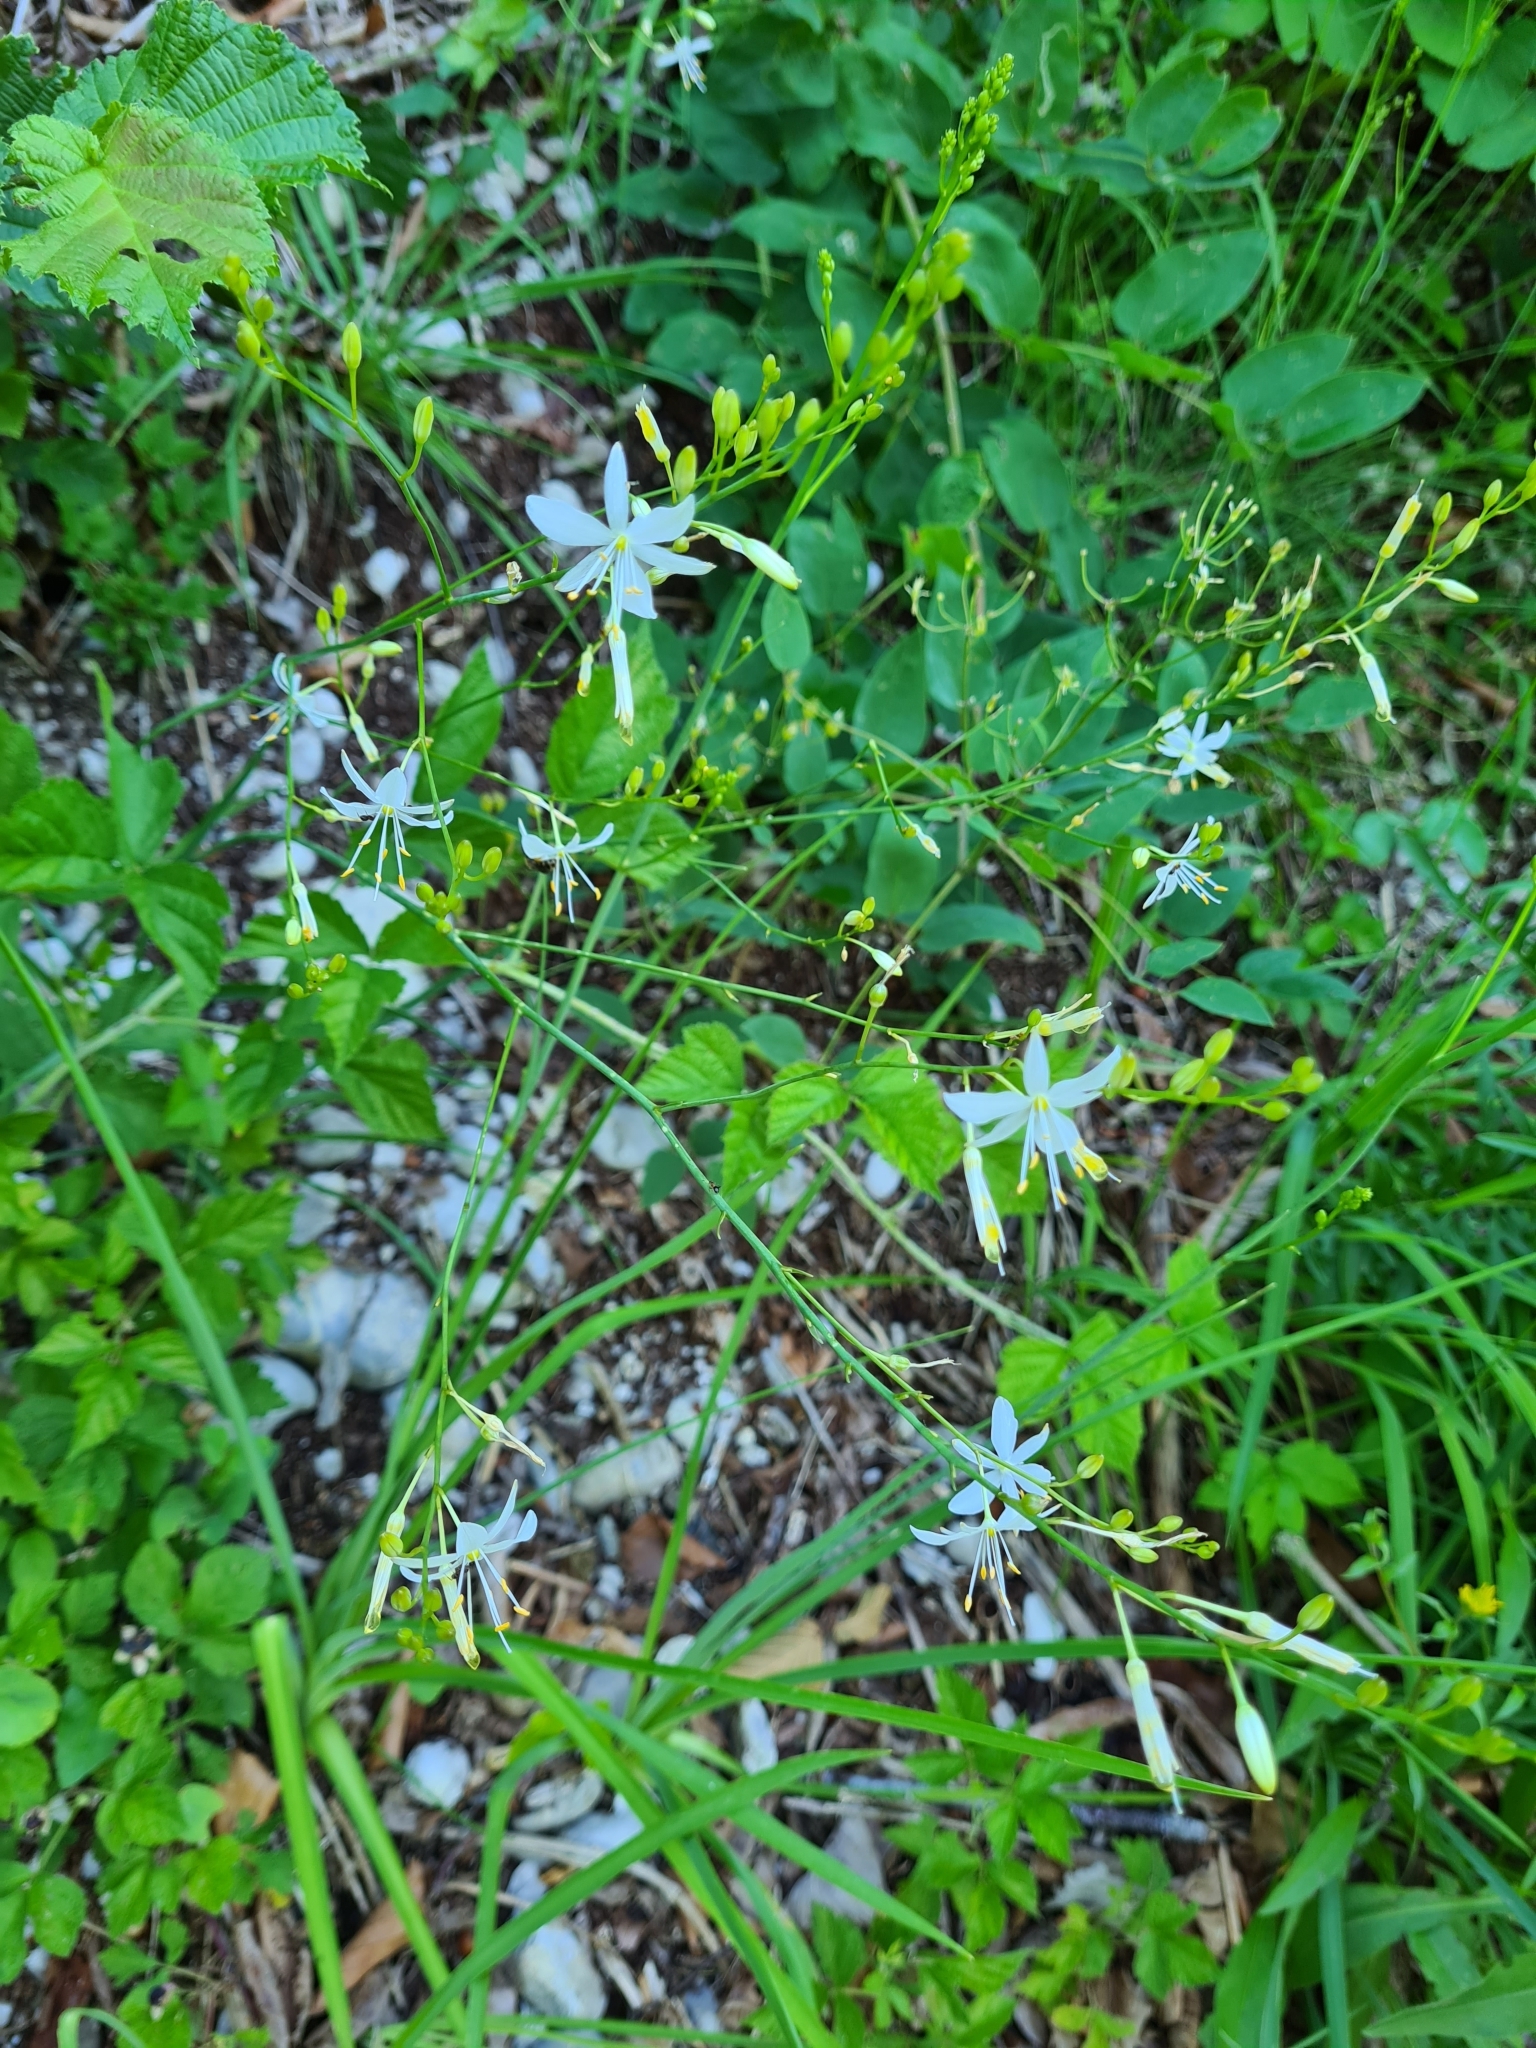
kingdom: Plantae
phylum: Tracheophyta
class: Liliopsida
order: Asparagales
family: Asparagaceae
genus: Anthericum
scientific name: Anthericum ramosum
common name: Branched st. bernard's-lily
